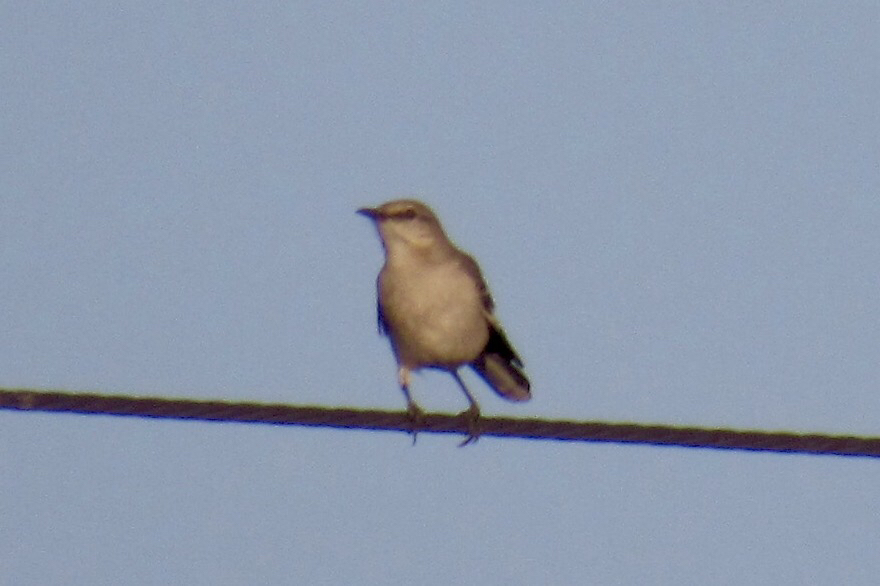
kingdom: Animalia
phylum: Chordata
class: Aves
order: Passeriformes
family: Mimidae
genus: Mimus
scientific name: Mimus polyglottos
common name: Northern mockingbird
